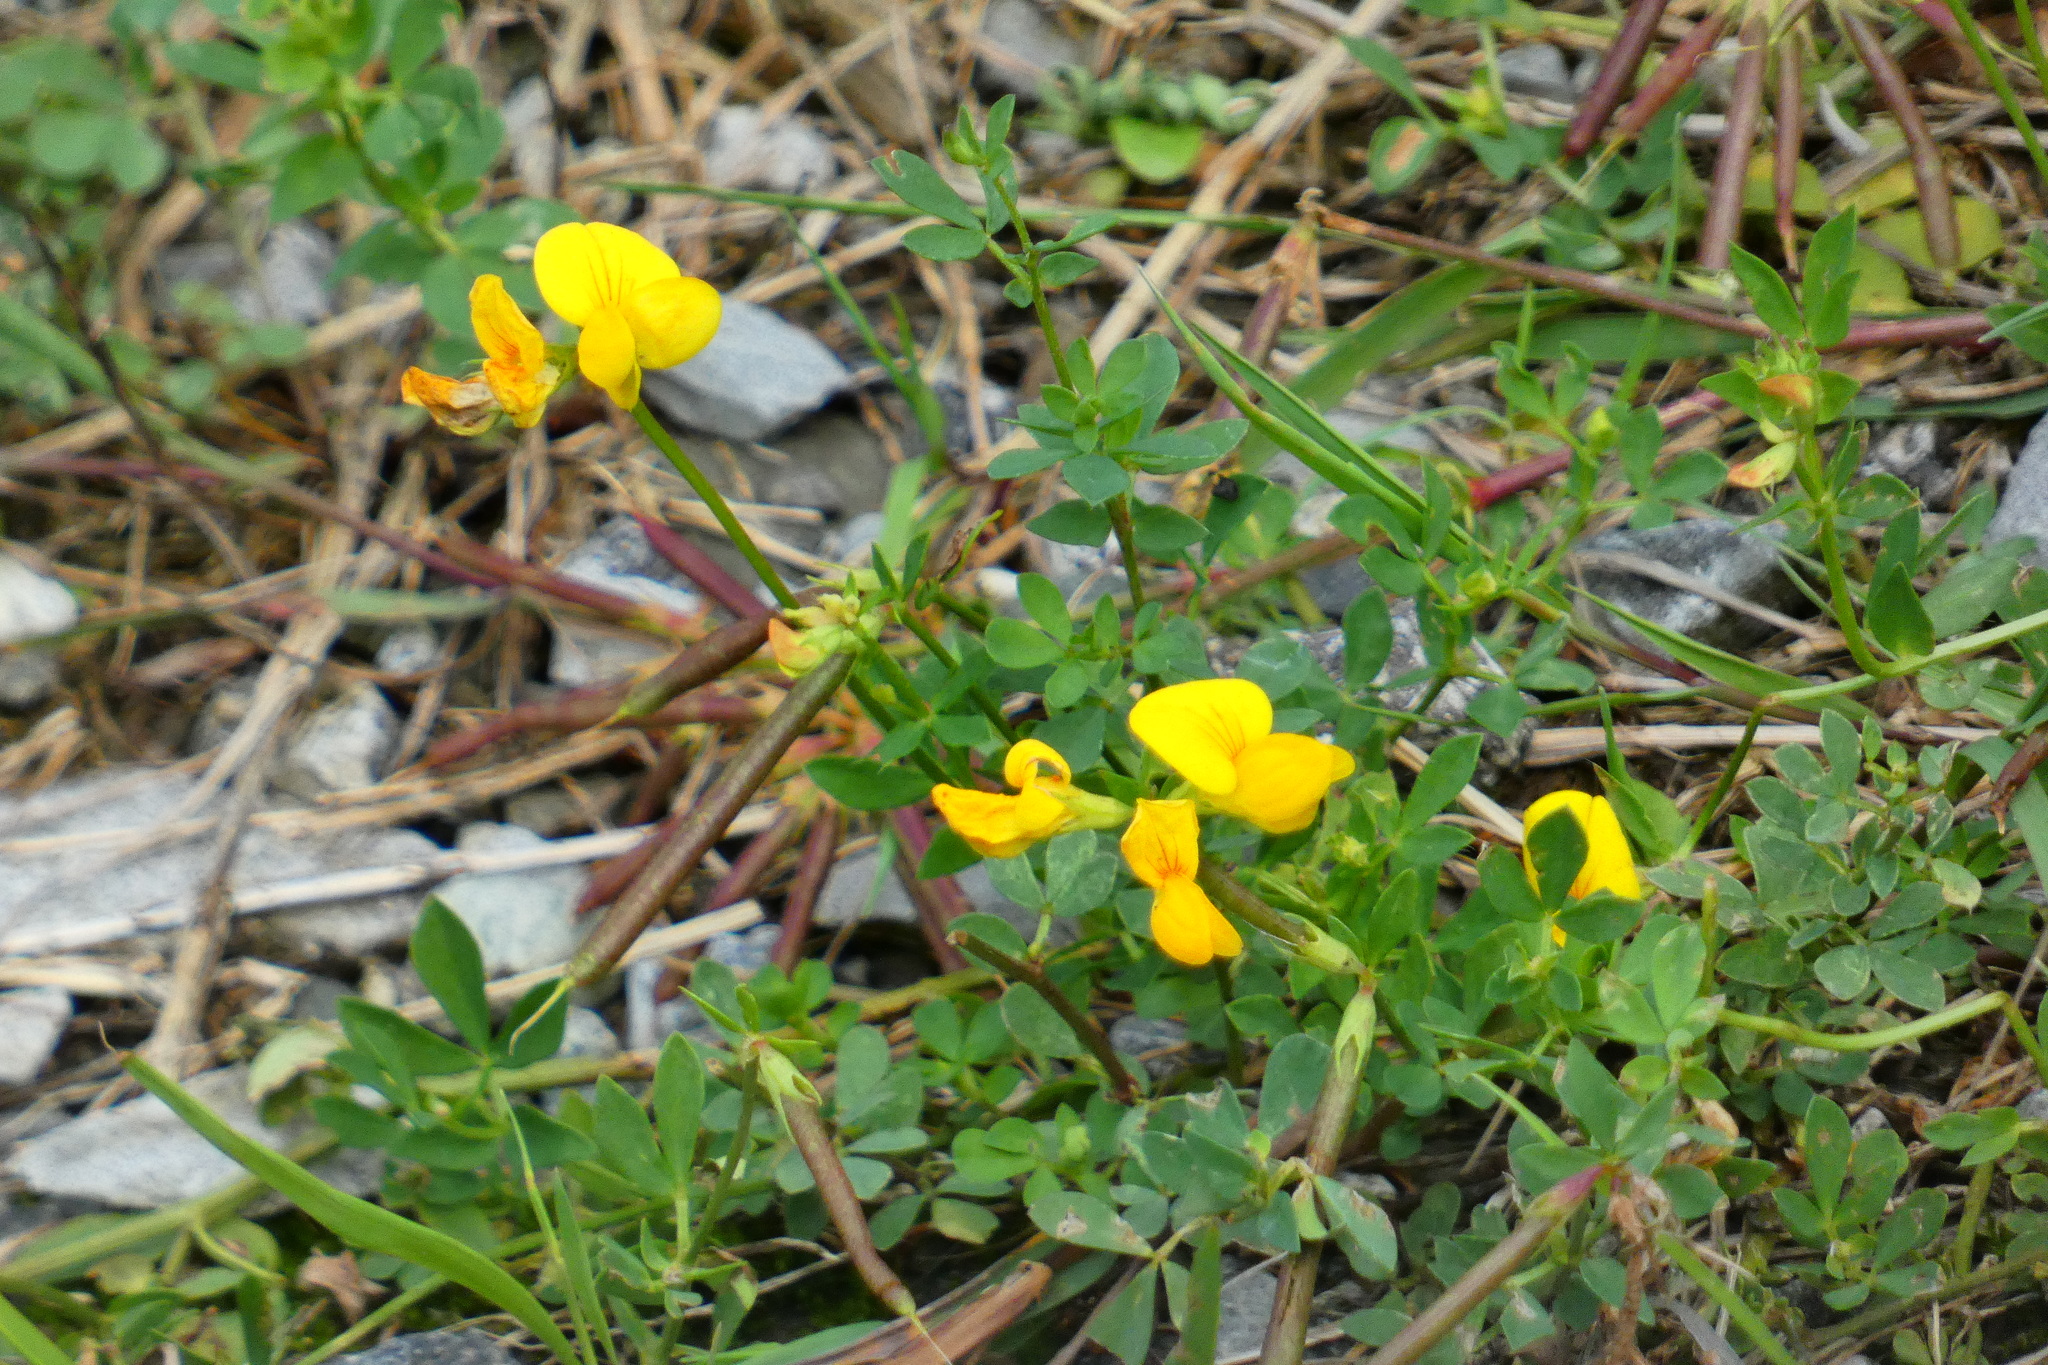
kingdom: Plantae
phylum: Tracheophyta
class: Magnoliopsida
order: Fabales
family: Fabaceae
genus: Lotus
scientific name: Lotus corniculatus
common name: Common bird's-foot-trefoil
